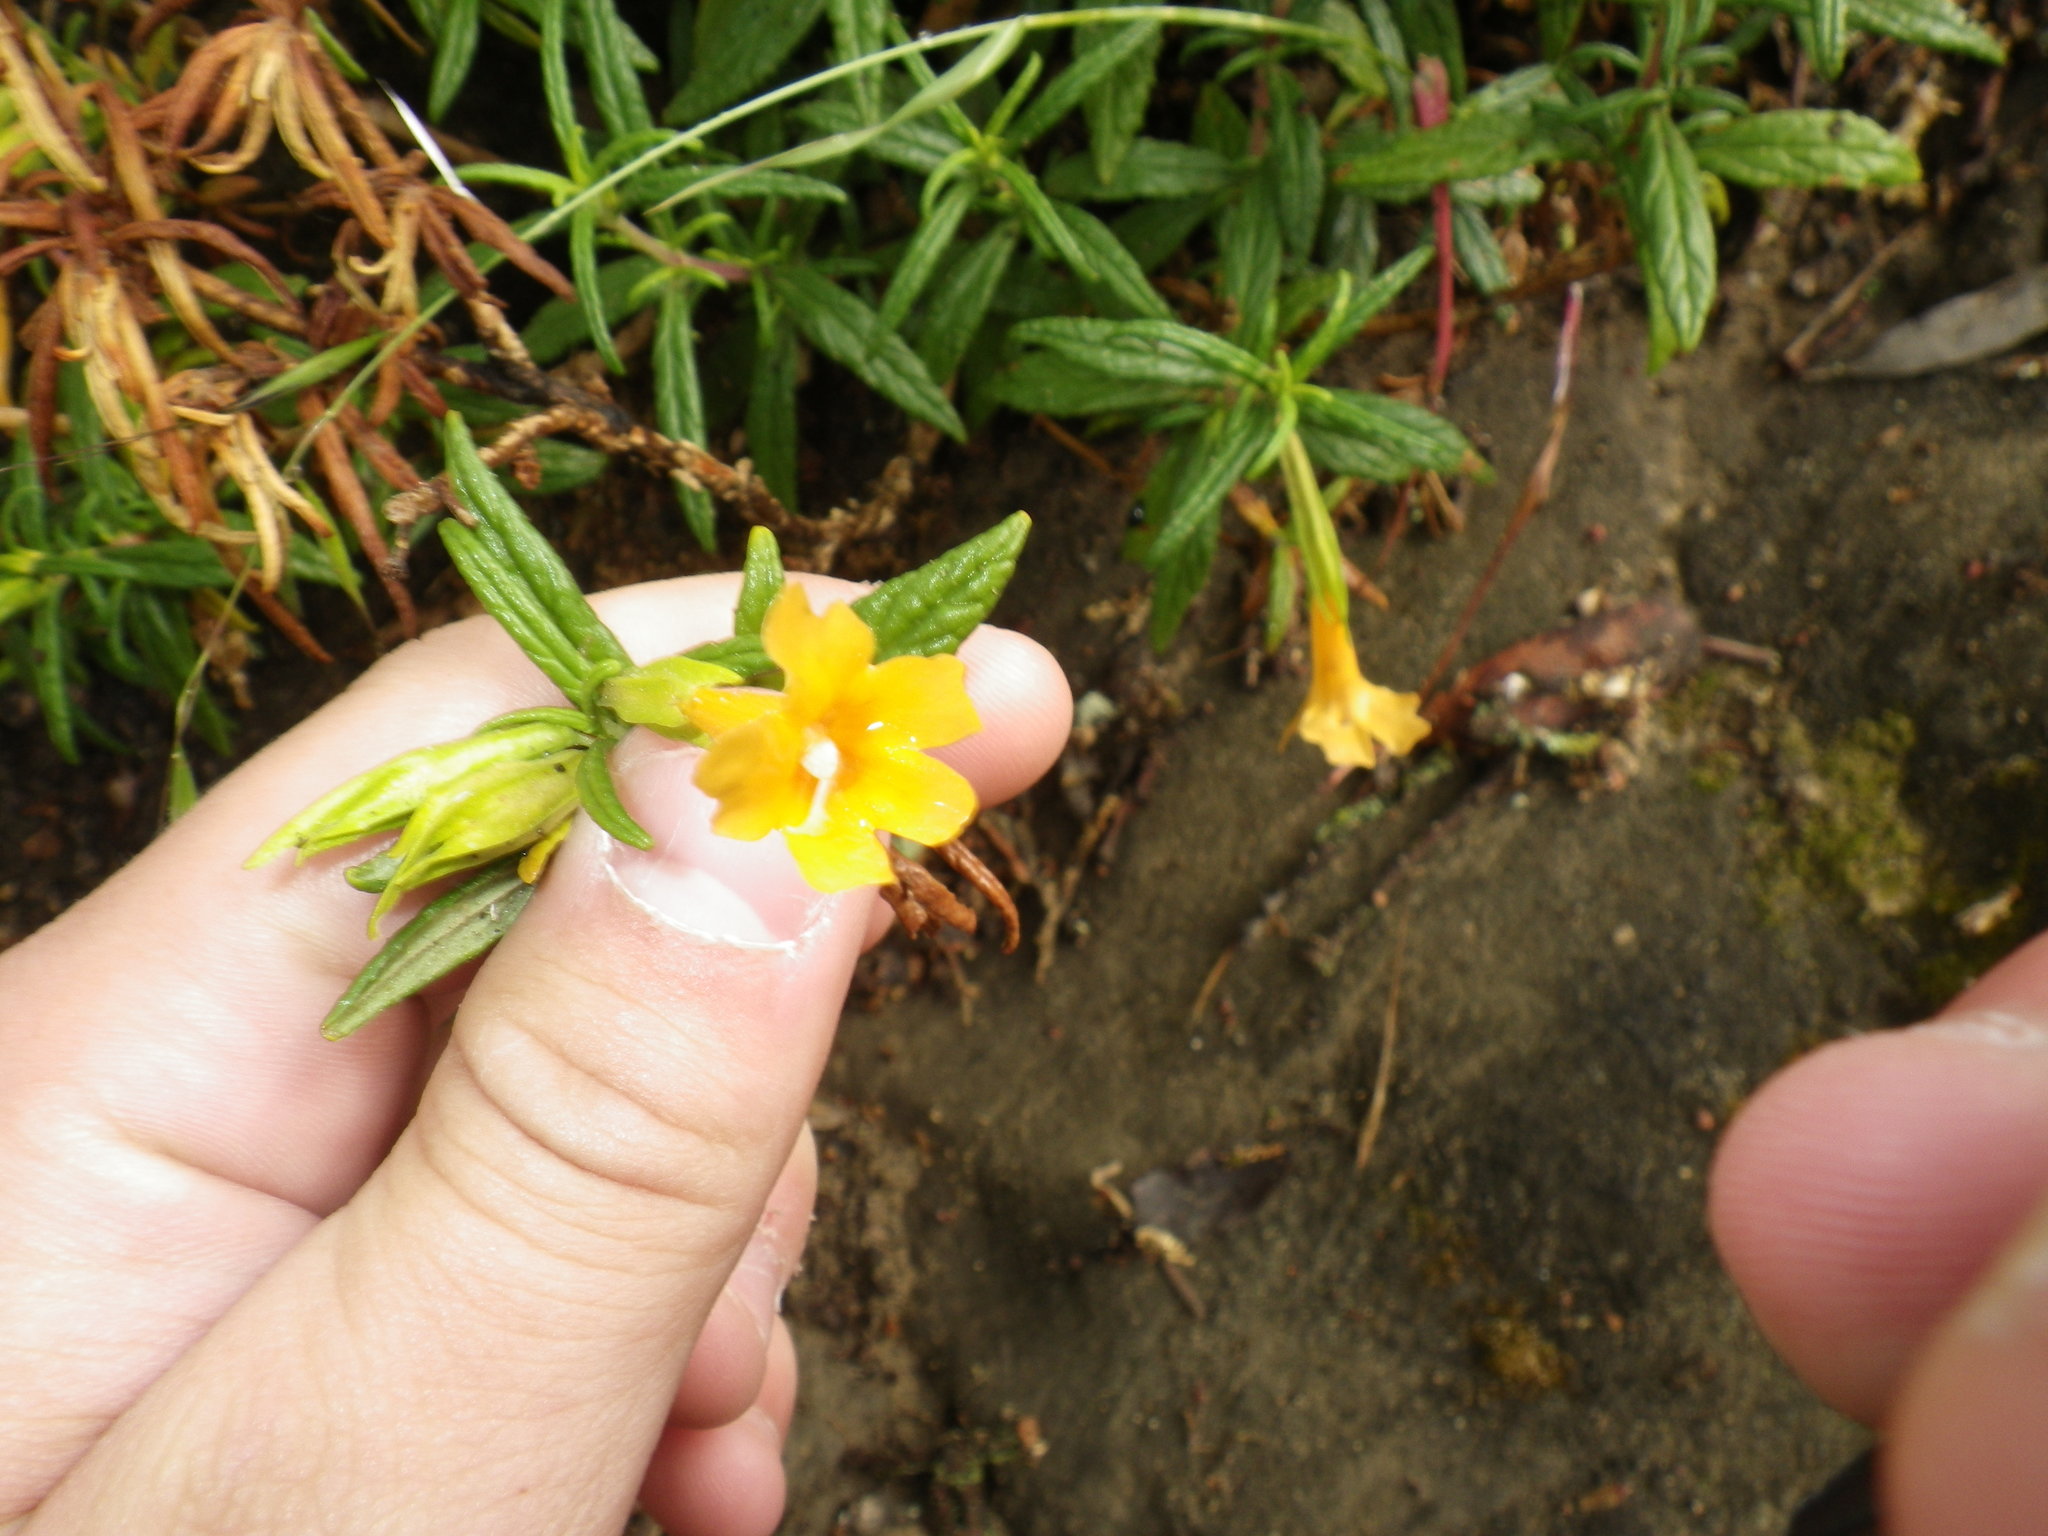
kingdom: Plantae
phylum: Tracheophyta
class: Magnoliopsida
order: Lamiales
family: Phrymaceae
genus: Diplacus
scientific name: Diplacus aurantiacus
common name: Bush monkey-flower
